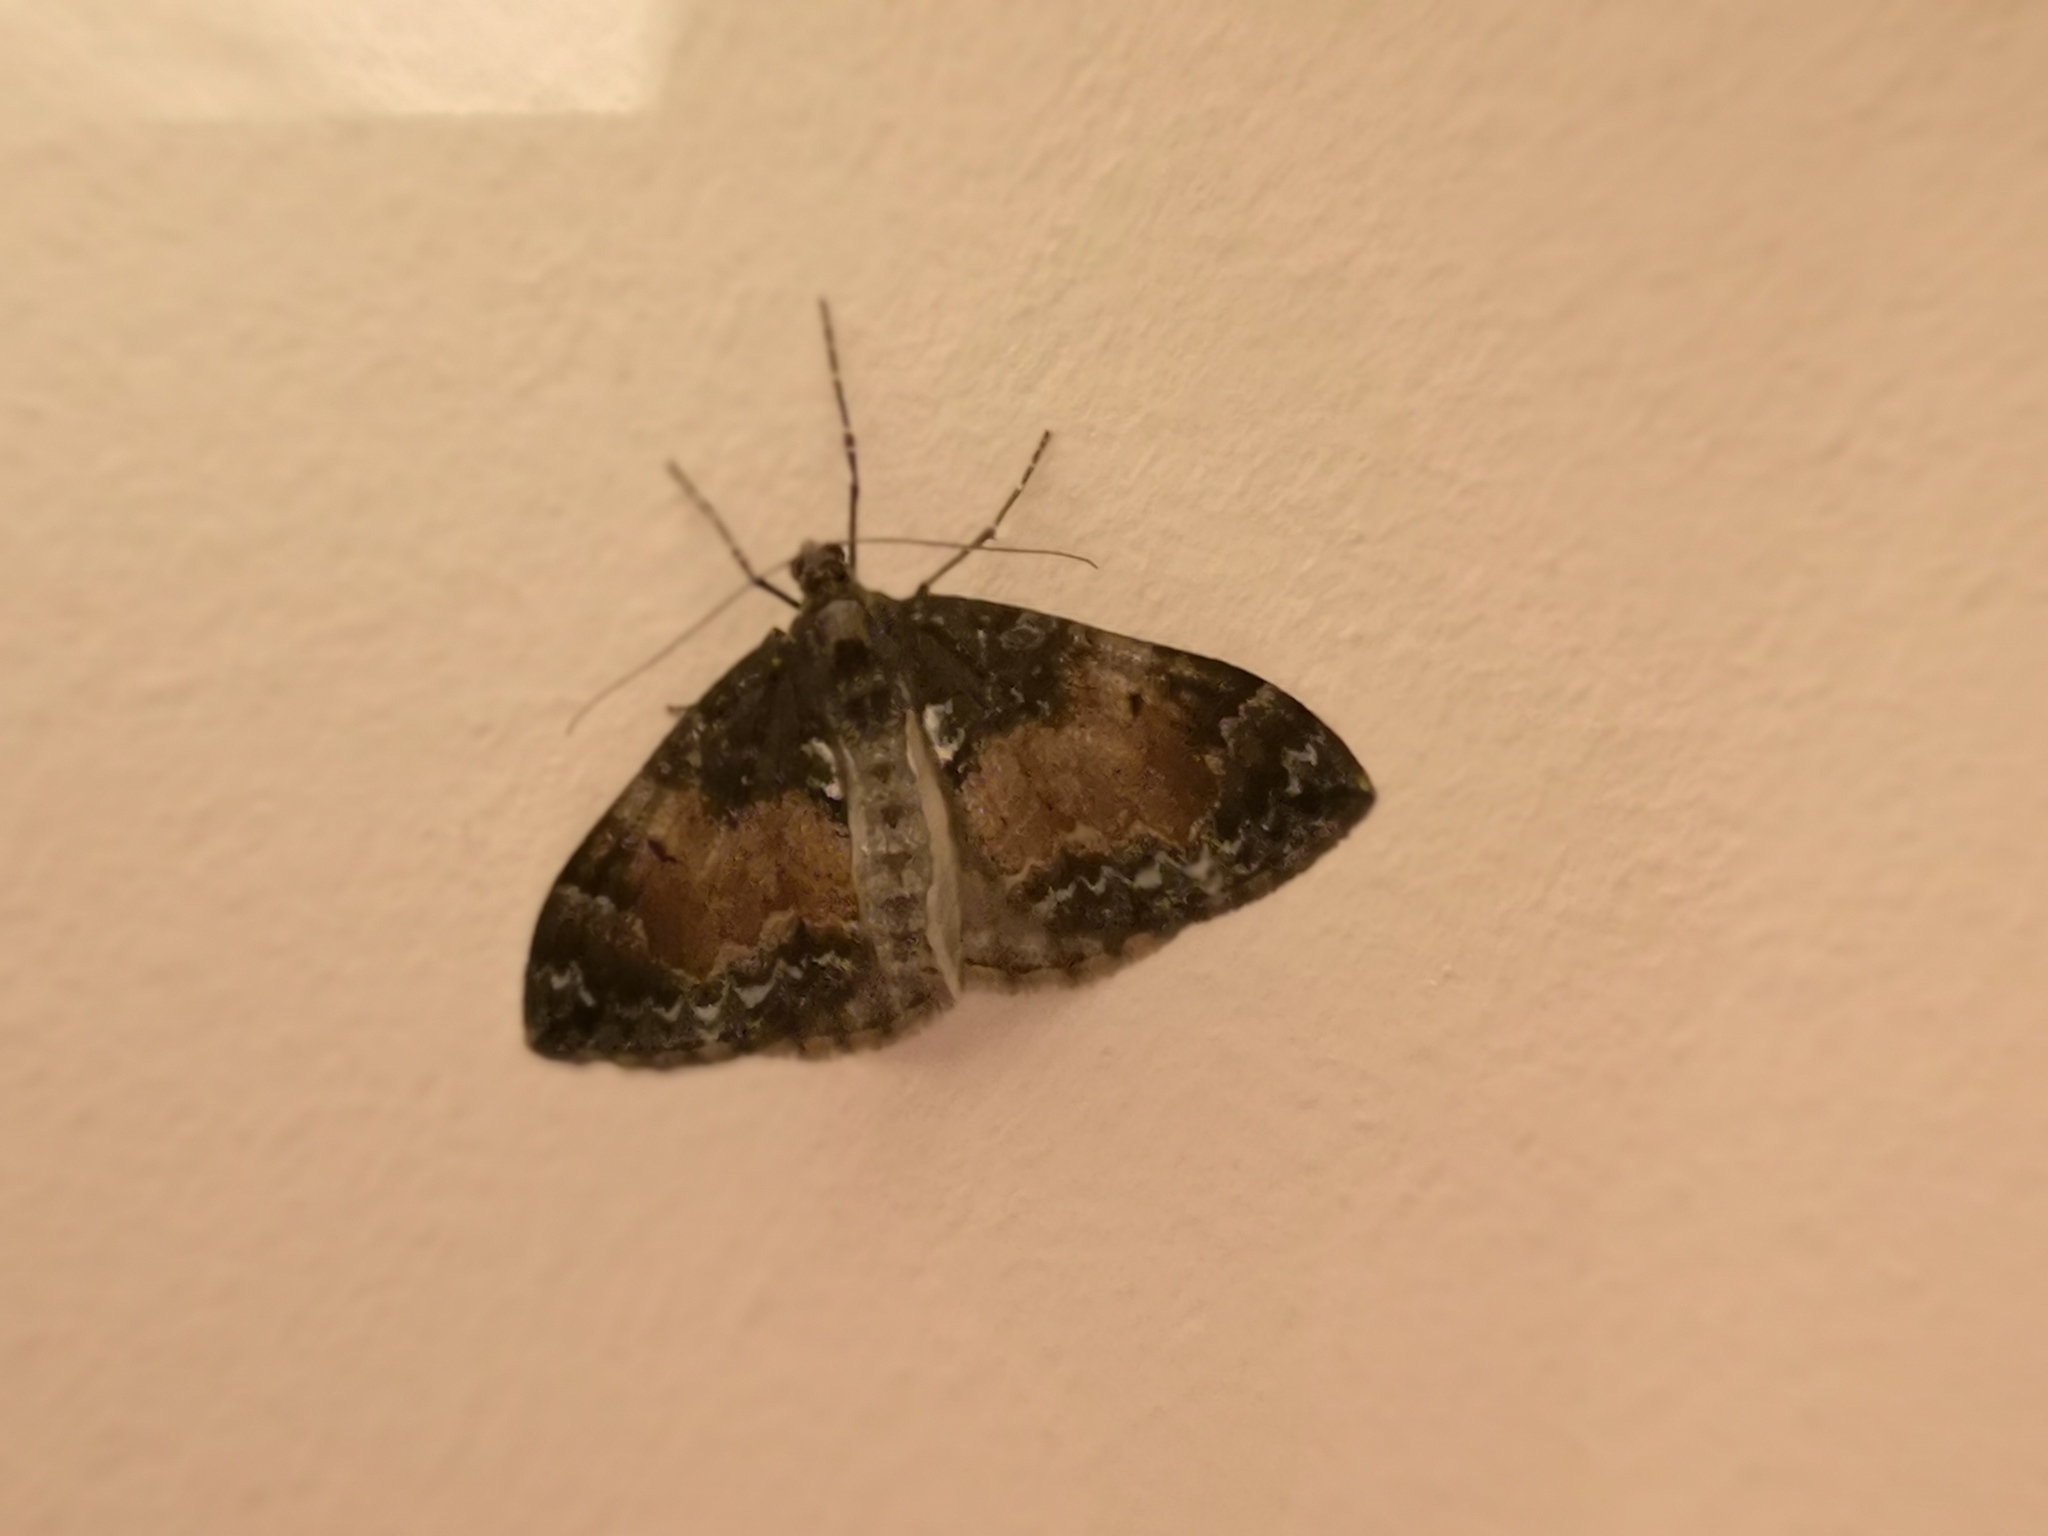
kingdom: Animalia
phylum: Arthropoda
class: Insecta
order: Lepidoptera
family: Geometridae
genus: Dysstroma
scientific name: Dysstroma truncata
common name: Common marbled carpet
